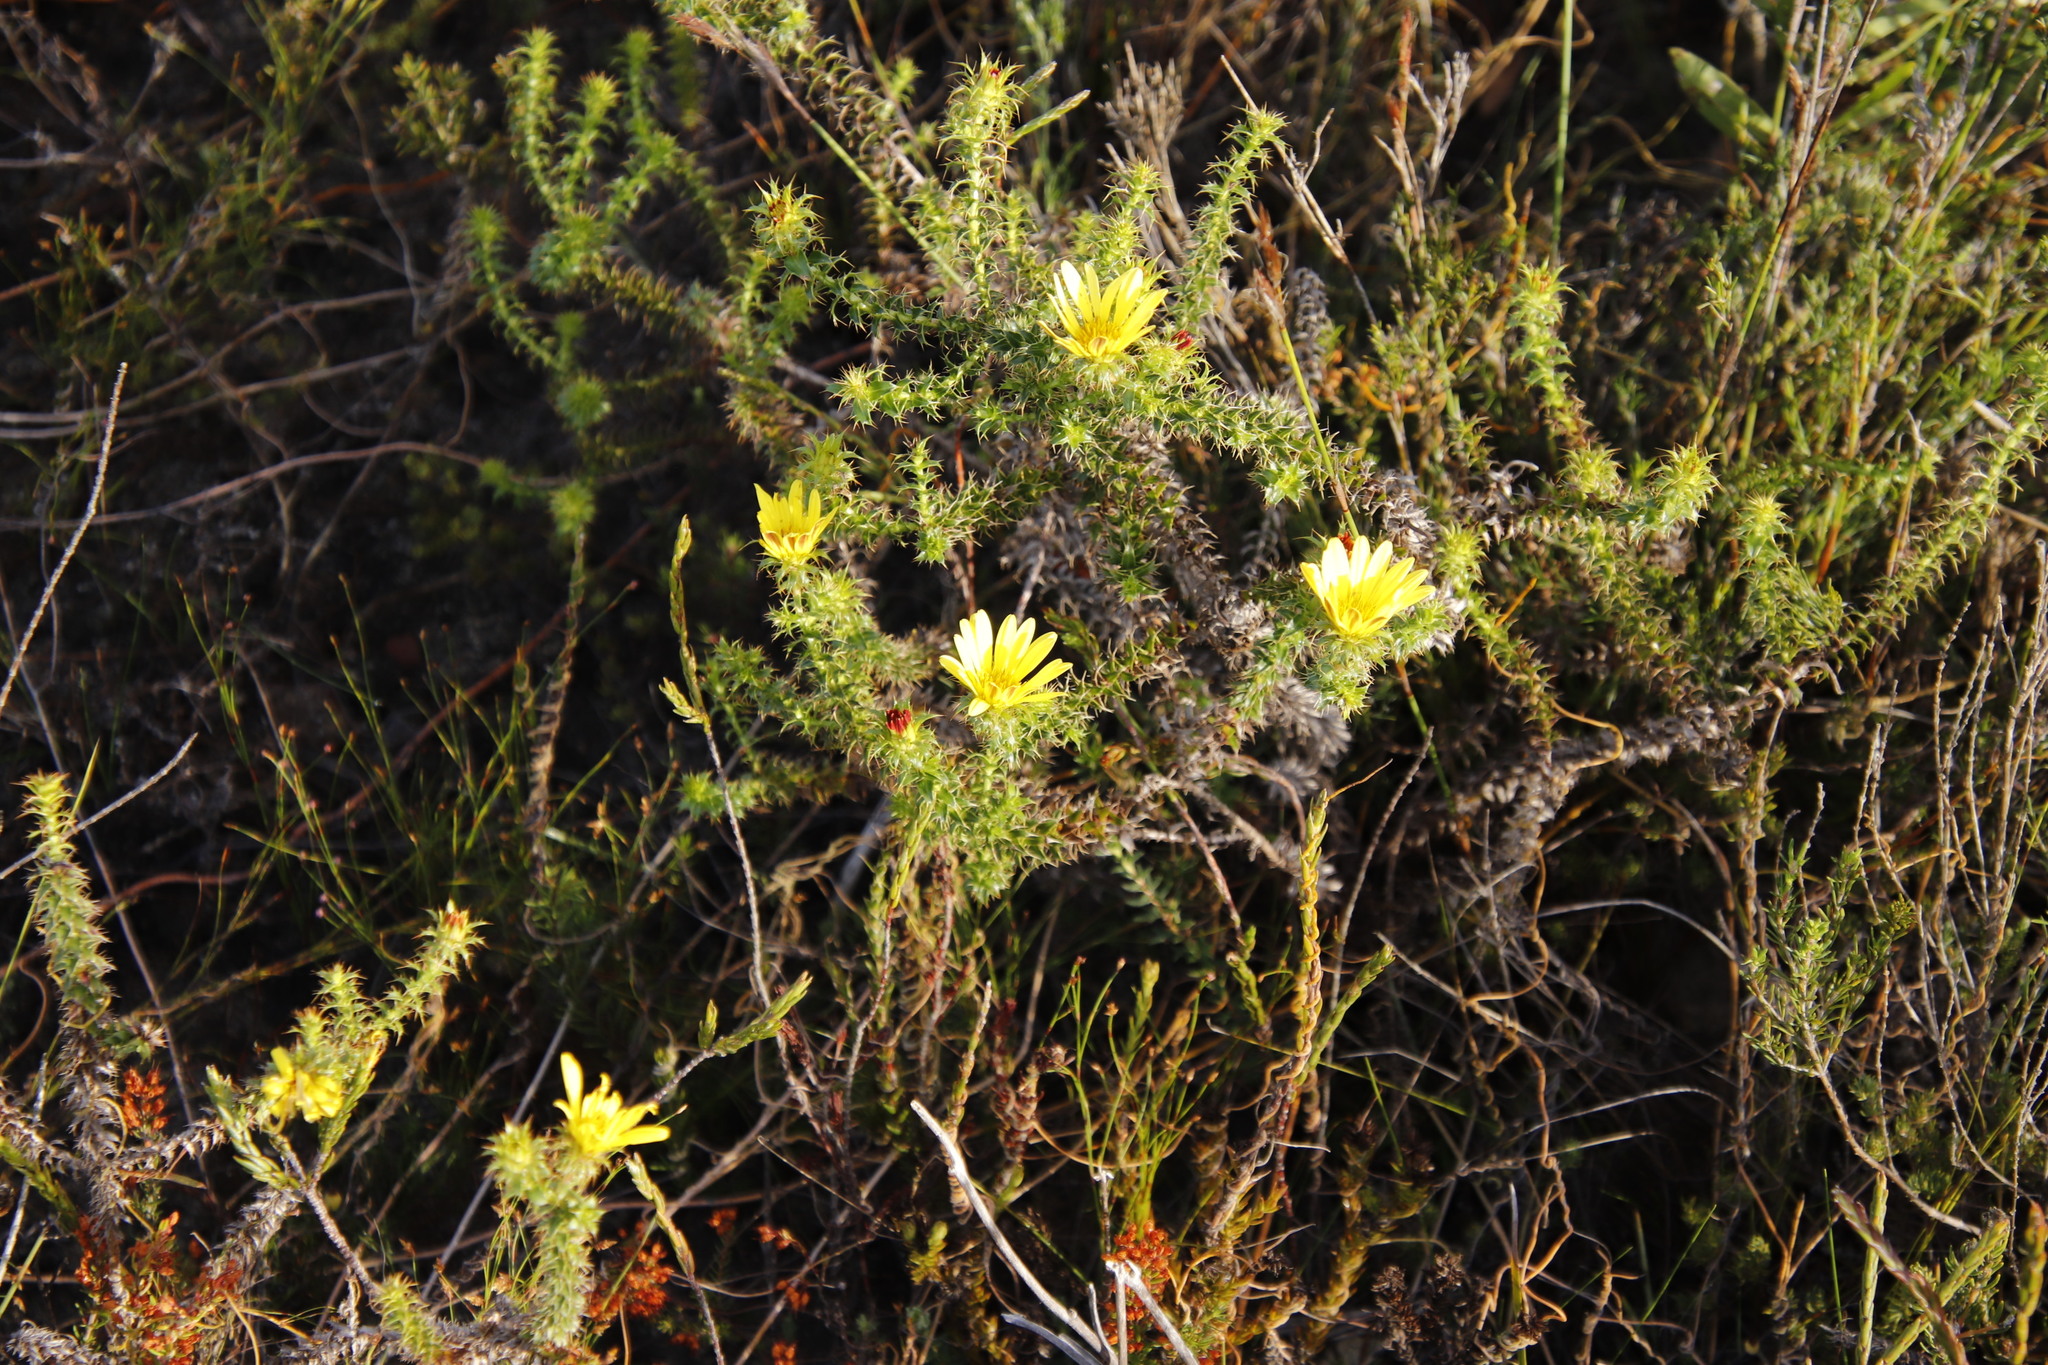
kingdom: Plantae
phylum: Tracheophyta
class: Magnoliopsida
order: Asterales
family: Asteraceae
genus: Cullumia
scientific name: Cullumia setosa
